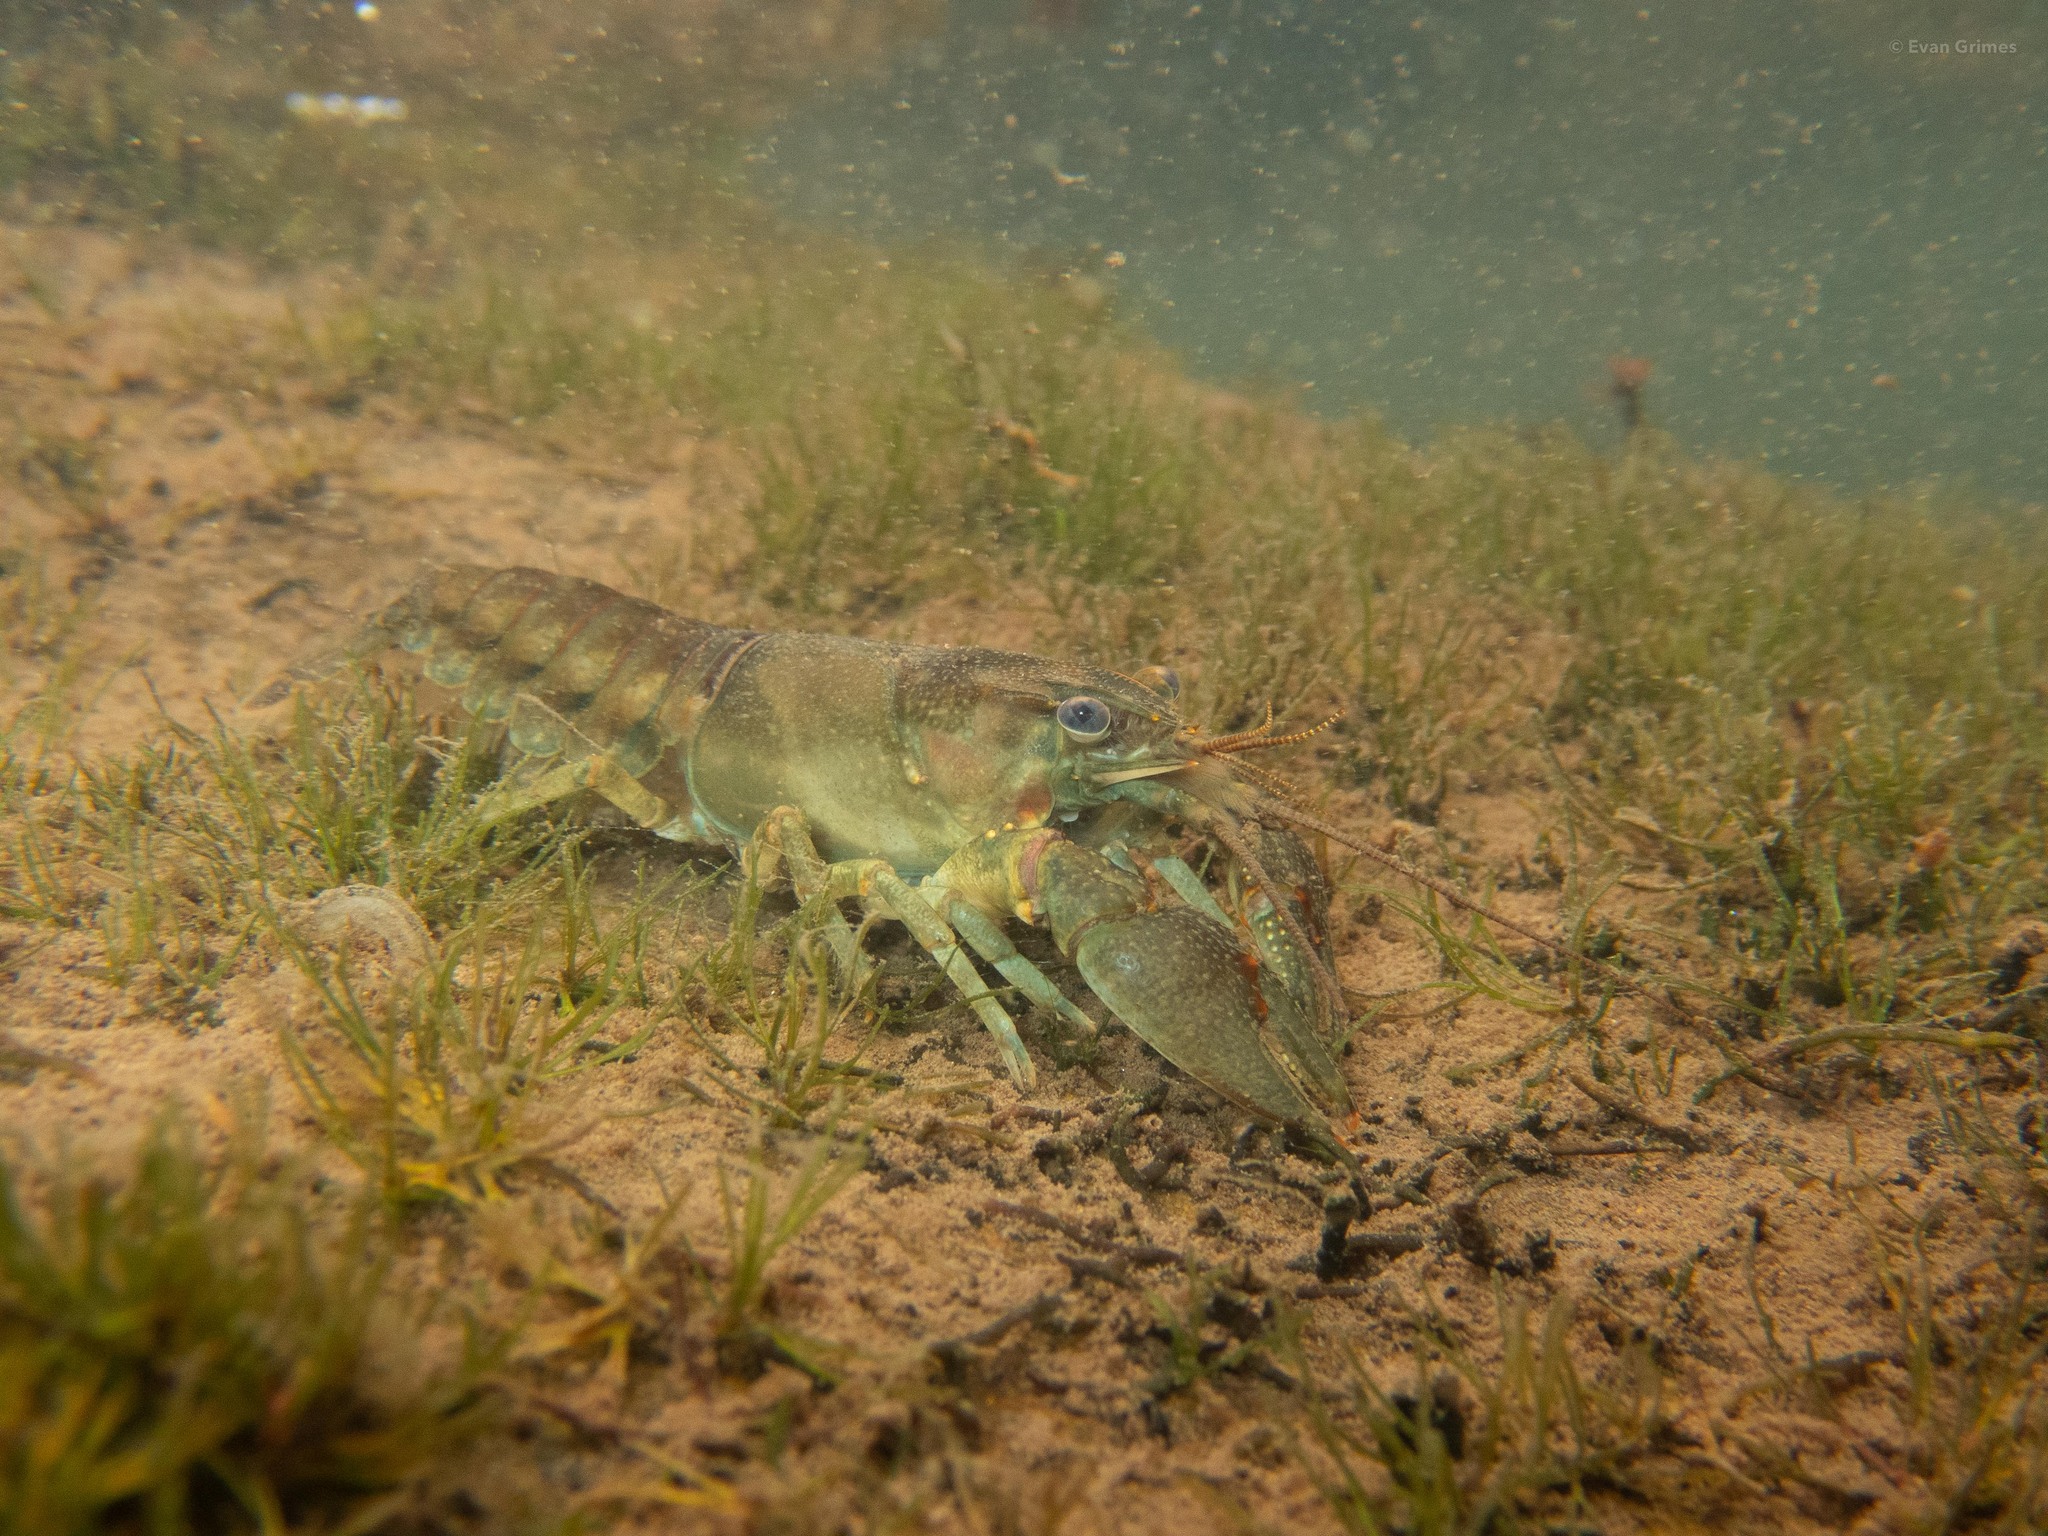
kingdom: Animalia
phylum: Arthropoda
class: Malacostraca
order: Decapoda
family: Cambaridae
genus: Faxonius
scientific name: Faxonius propinquus
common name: Northern clearwater crayfish
